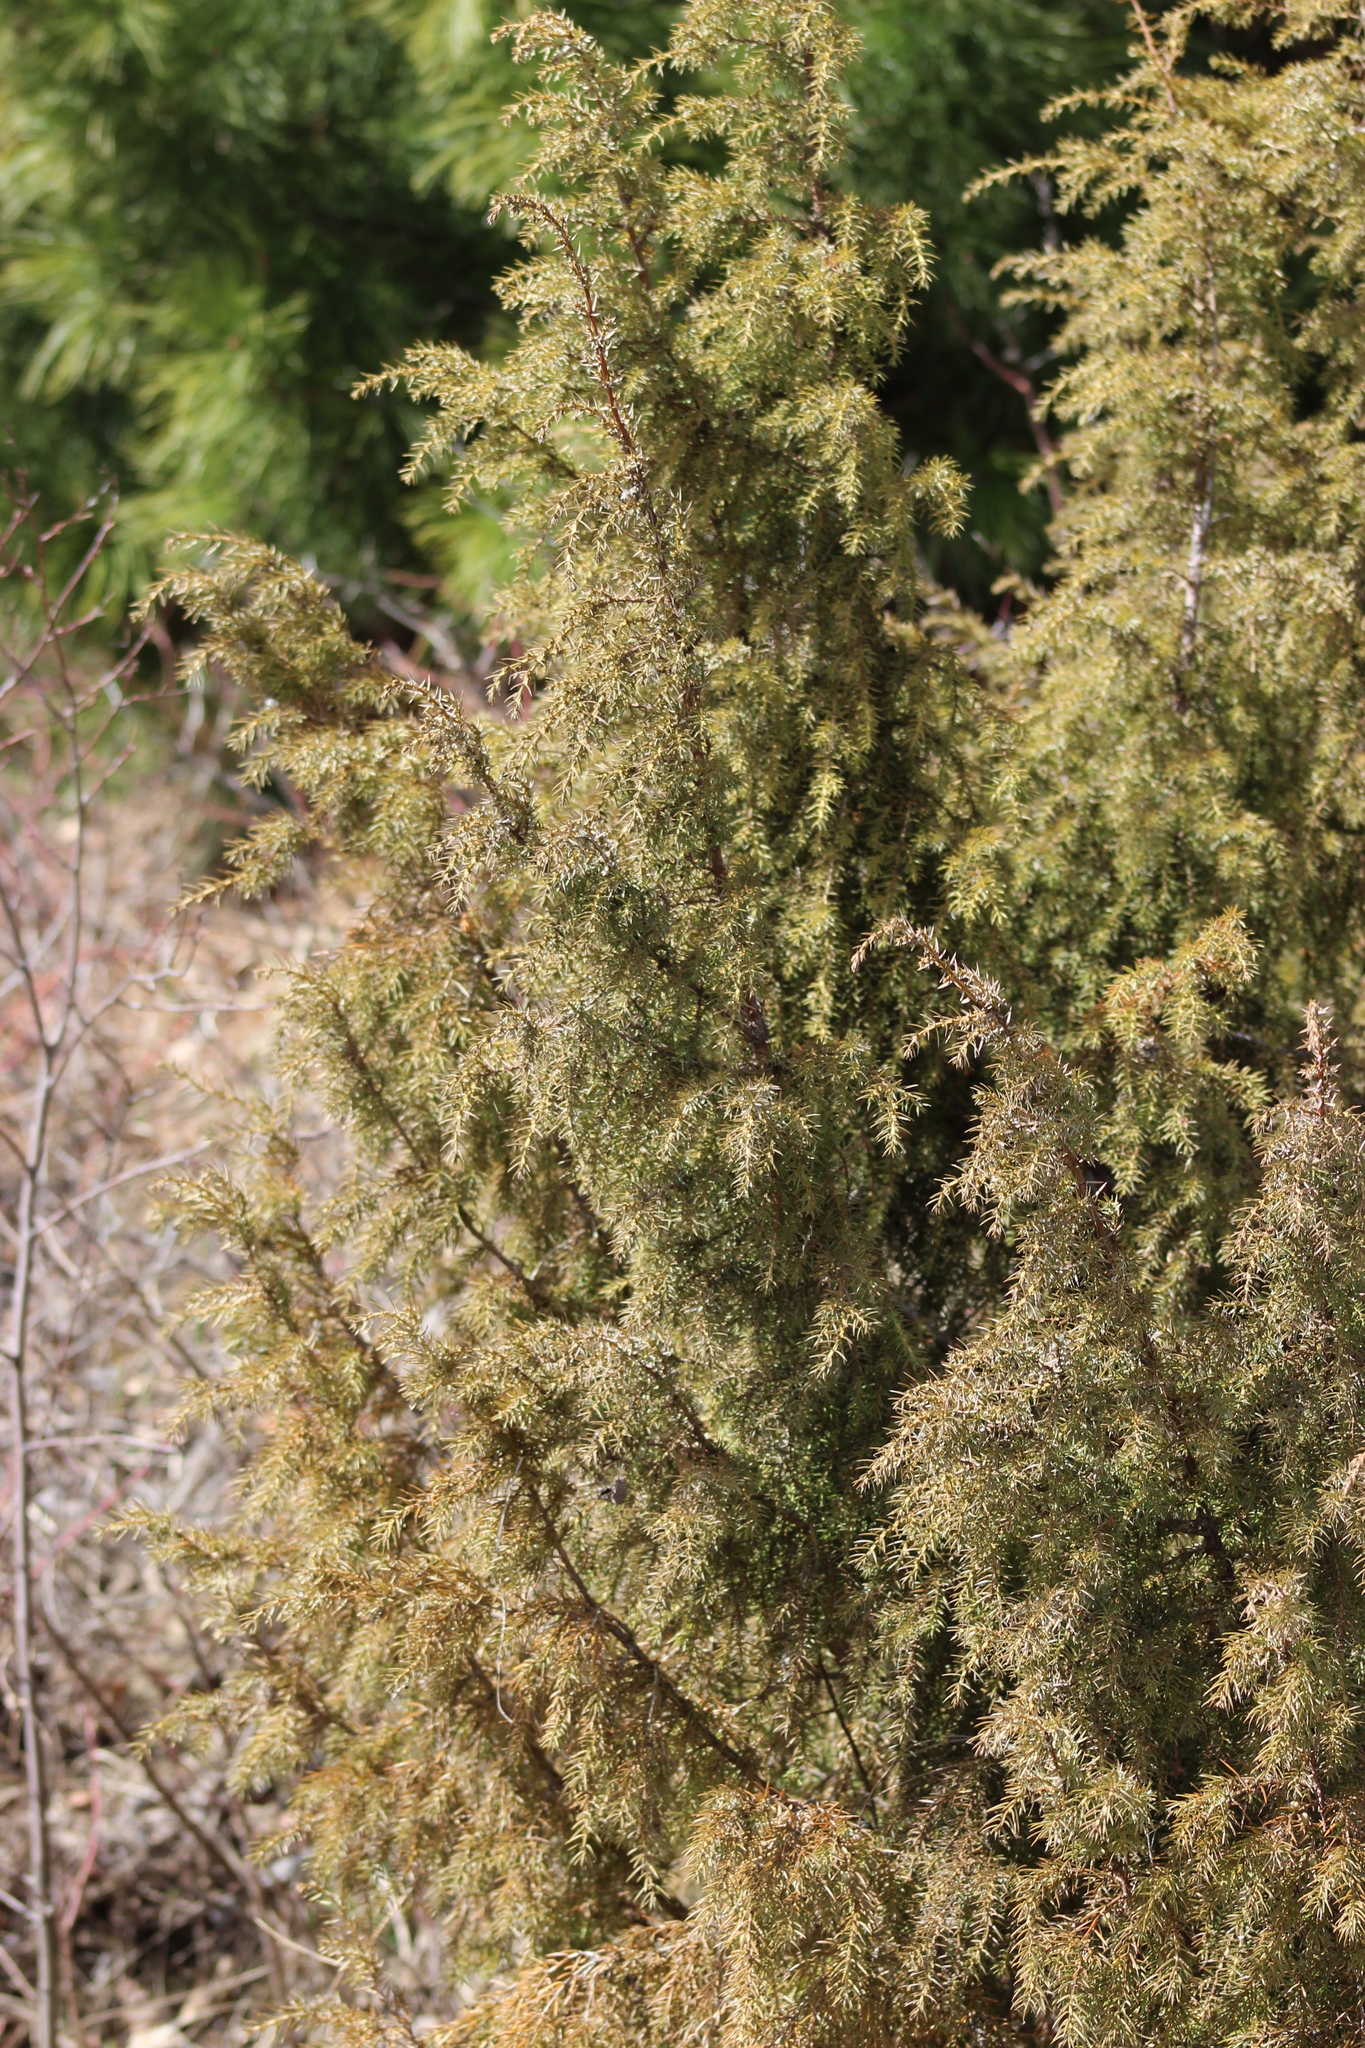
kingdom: Plantae
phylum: Tracheophyta
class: Pinopsida
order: Pinales
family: Cupressaceae
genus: Juniperus
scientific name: Juniperus communis
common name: Common juniper
